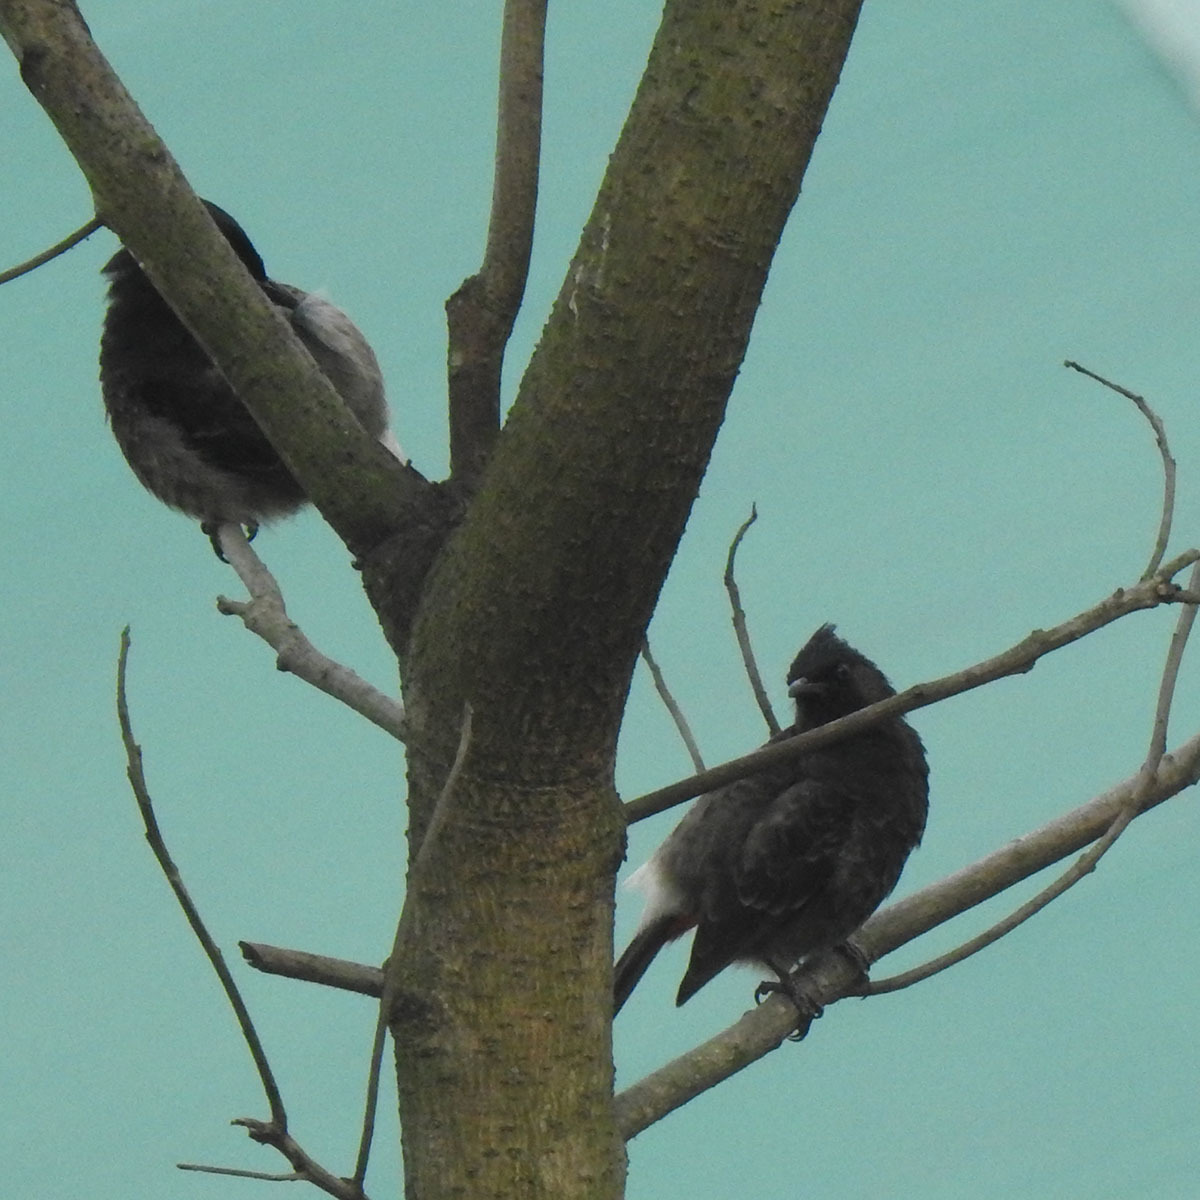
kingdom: Animalia
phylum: Chordata
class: Aves
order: Passeriformes
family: Pycnonotidae
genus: Pycnonotus
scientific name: Pycnonotus cafer
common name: Red-vented bulbul
